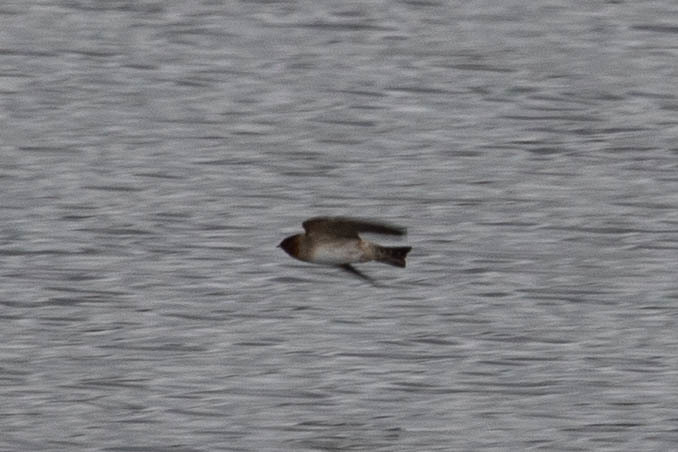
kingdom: Animalia
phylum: Chordata
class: Aves
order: Passeriformes
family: Hirundinidae
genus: Petrochelidon
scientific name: Petrochelidon pyrrhonota
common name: American cliff swallow
